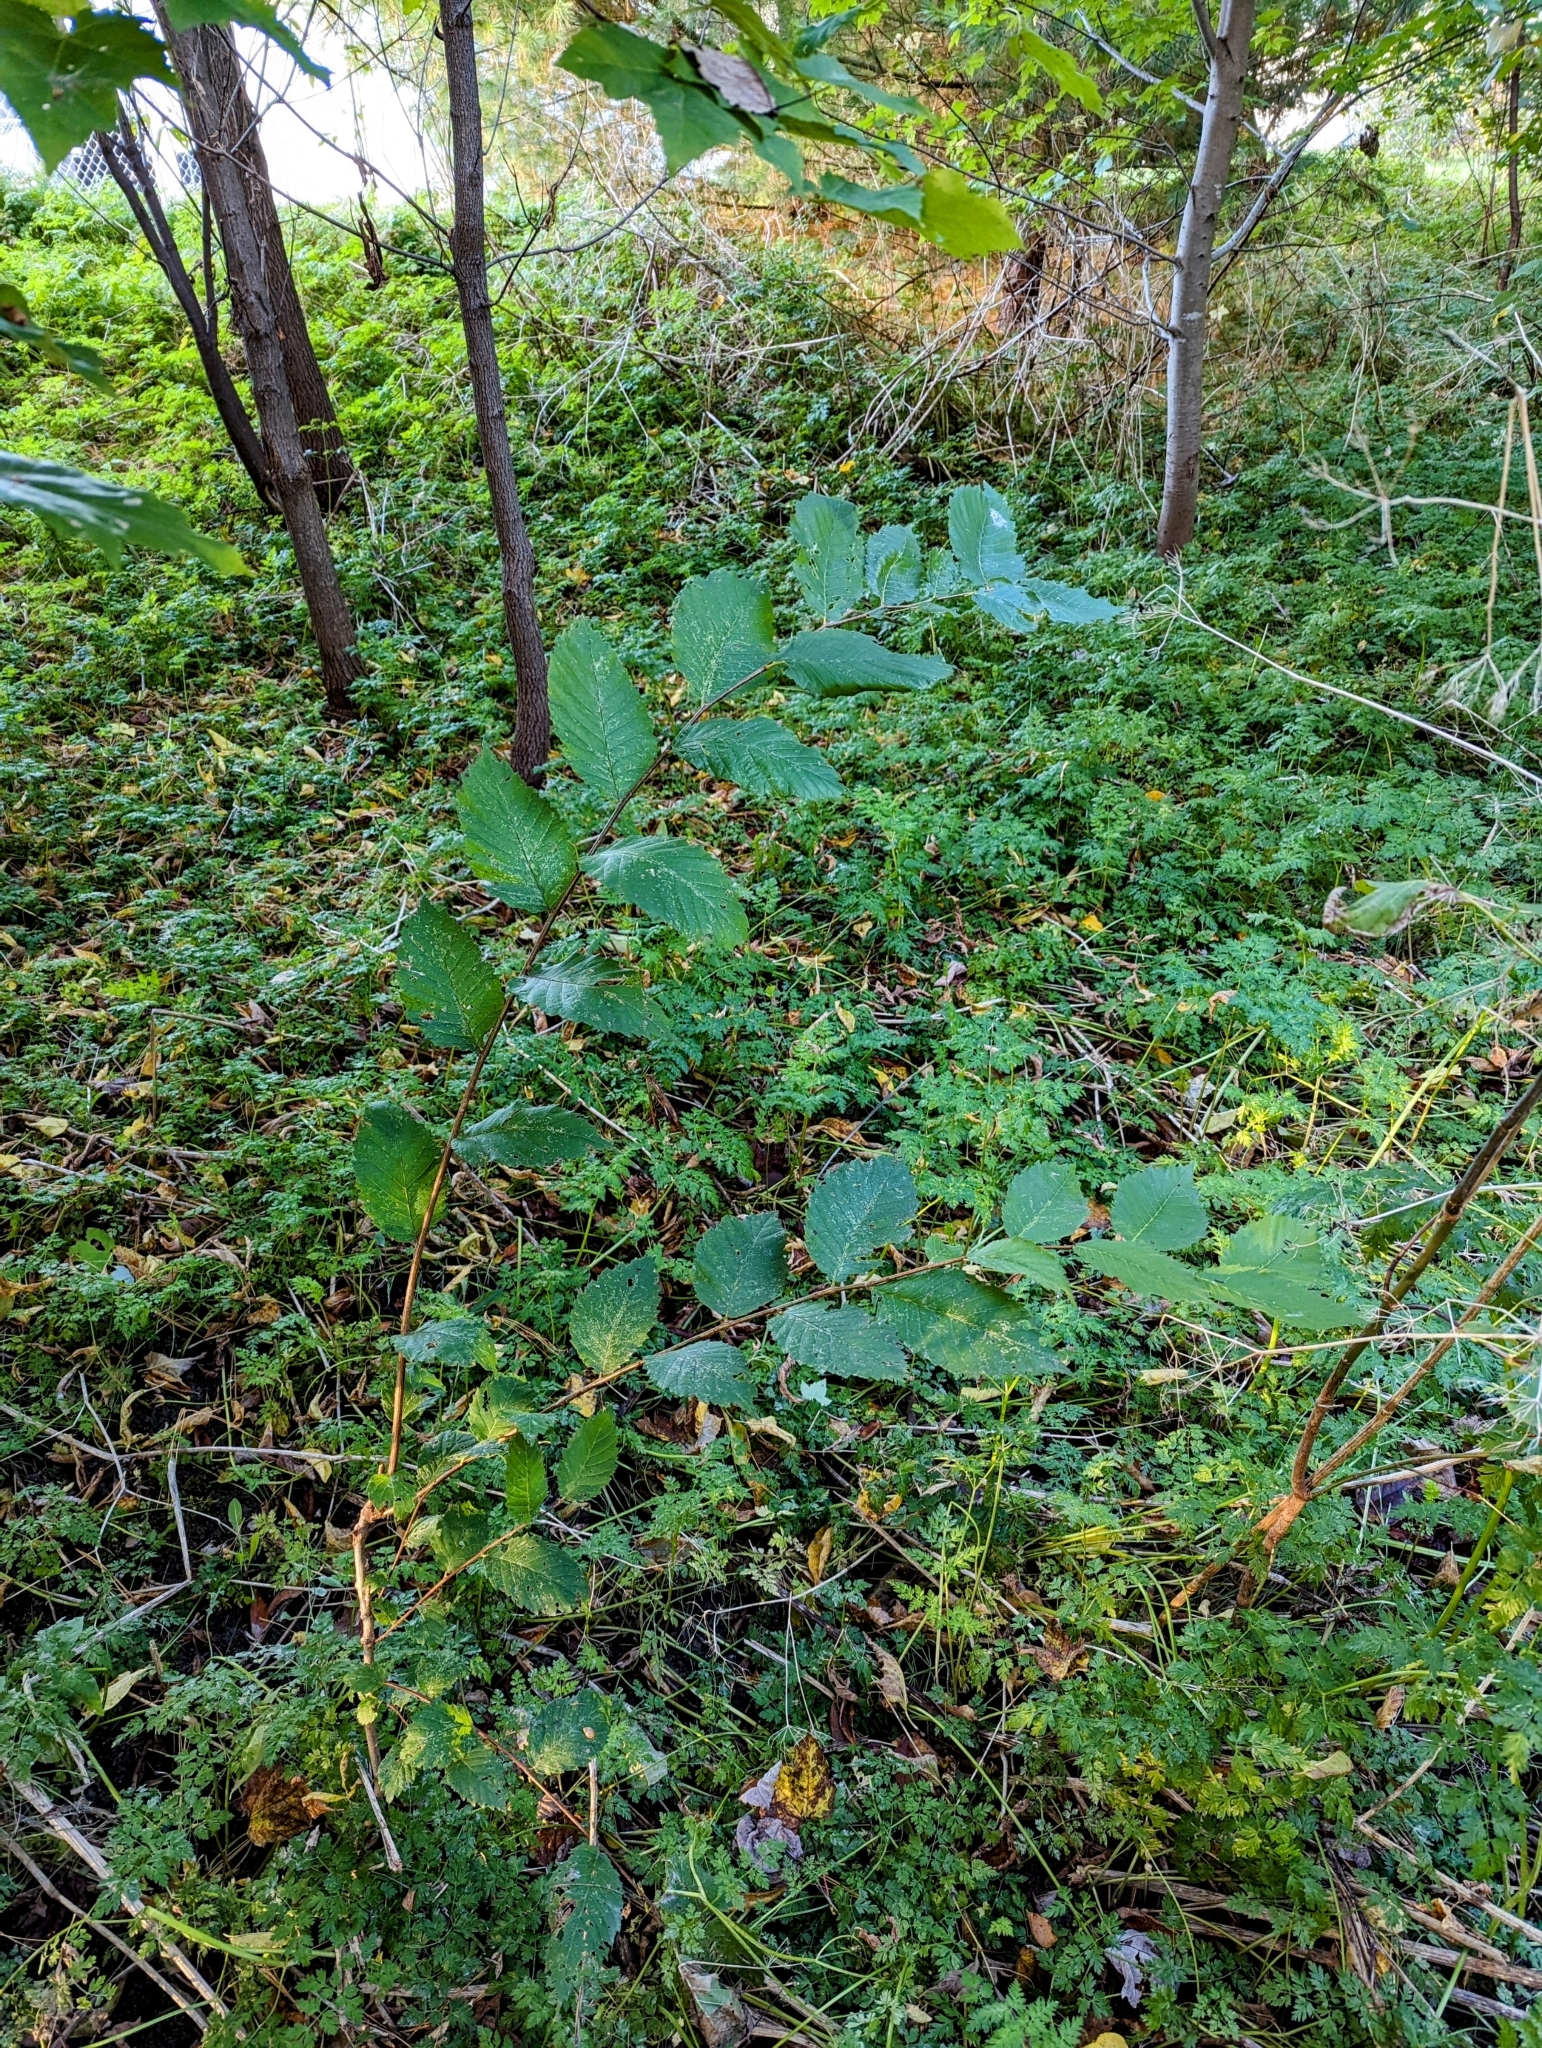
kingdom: Plantae
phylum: Tracheophyta
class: Magnoliopsida
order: Rosales
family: Ulmaceae
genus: Ulmus
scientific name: Ulmus americana
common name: American elm
